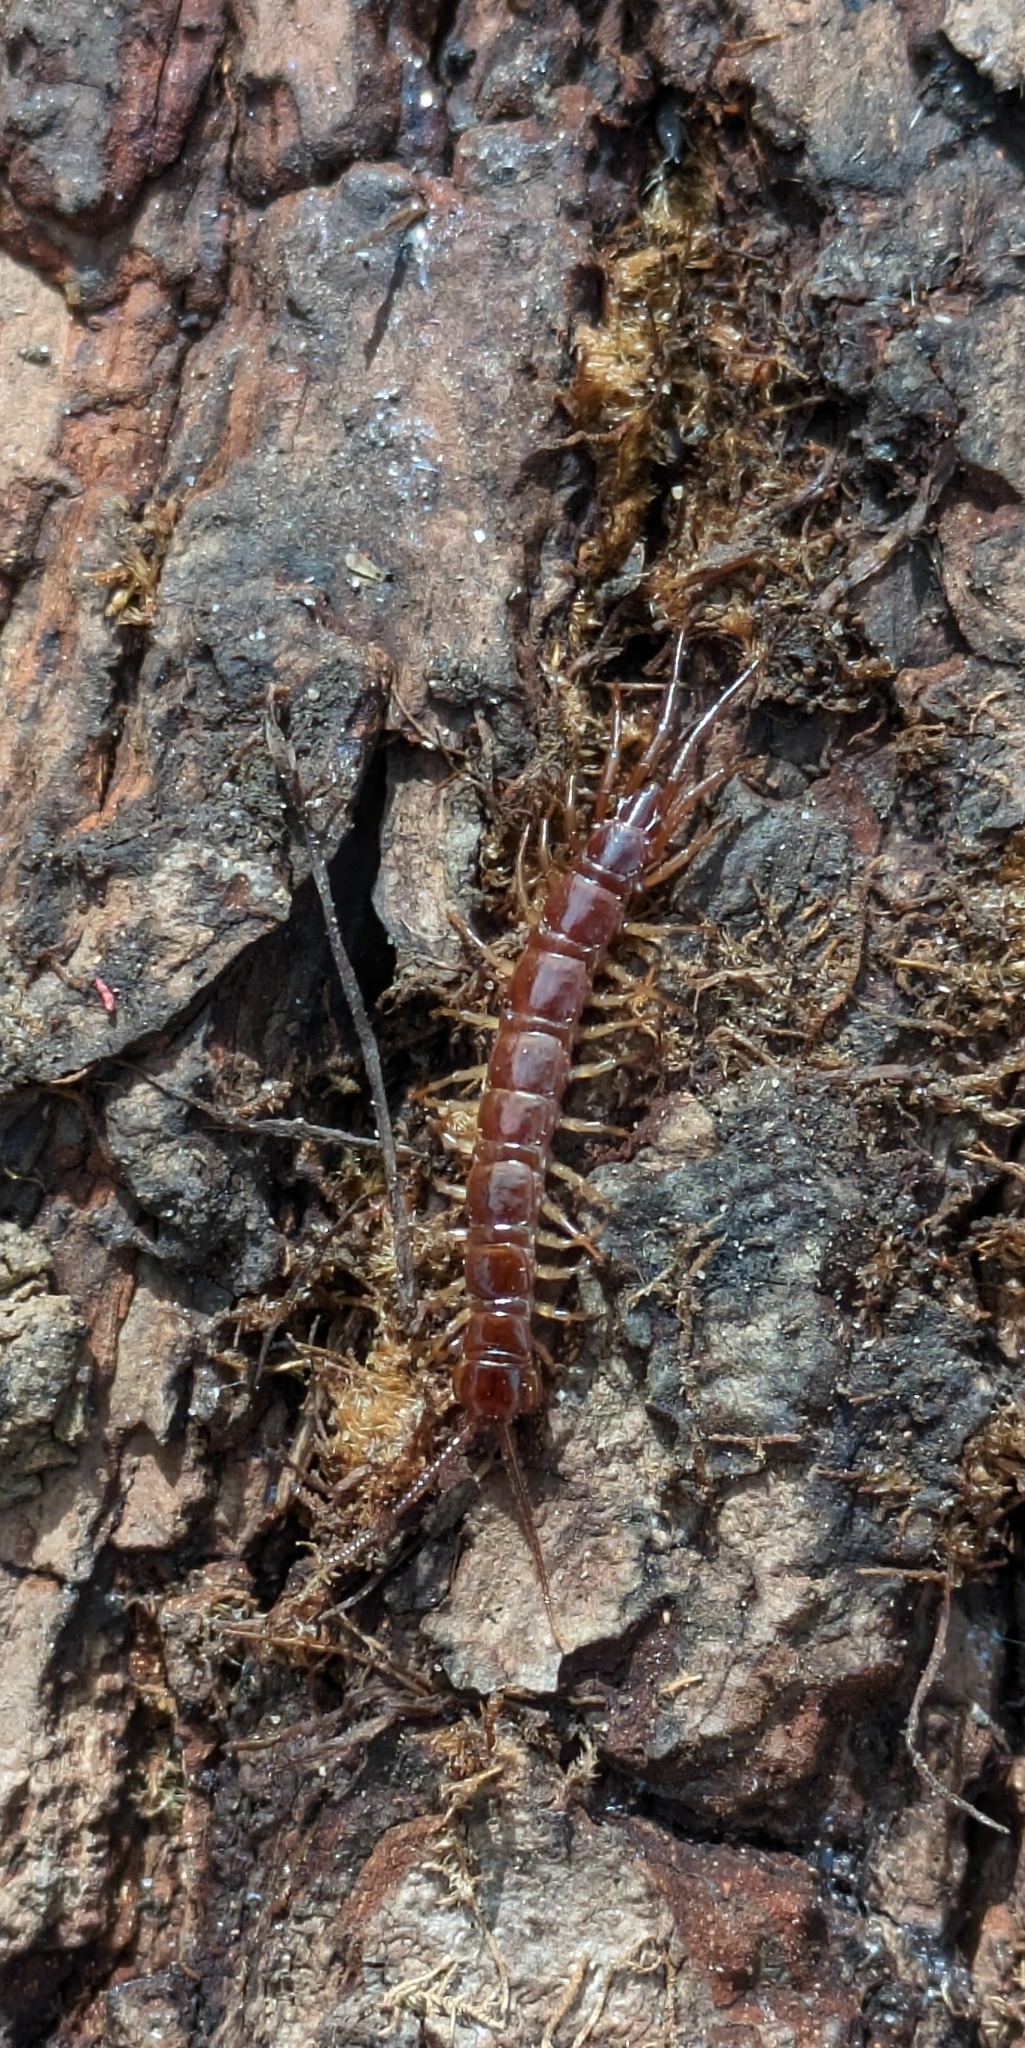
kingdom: Animalia
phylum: Arthropoda
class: Chilopoda
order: Lithobiomorpha
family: Lithobiidae
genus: Lithobius
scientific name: Lithobius forficatus
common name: Centipede
